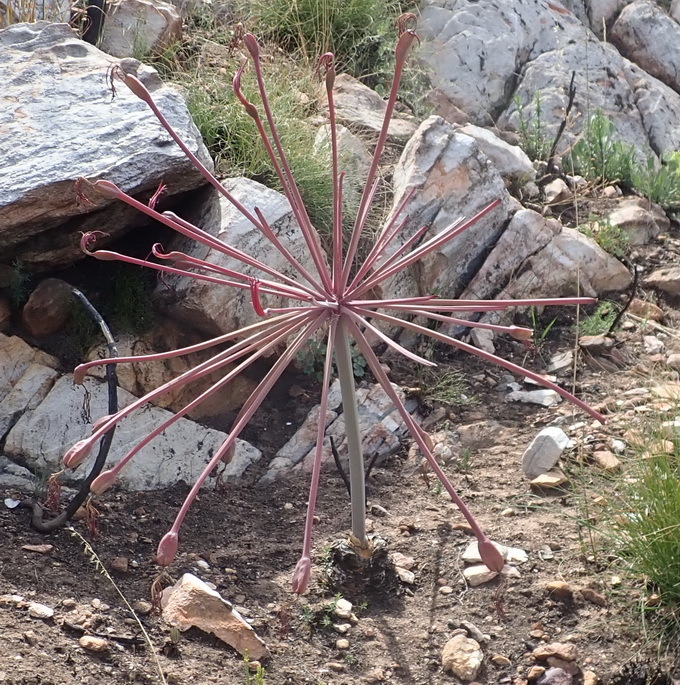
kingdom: Plantae
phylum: Tracheophyta
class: Liliopsida
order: Asparagales
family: Amaryllidaceae
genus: Brunsvigia
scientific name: Brunsvigia josephinae
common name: Josephine's-lily
